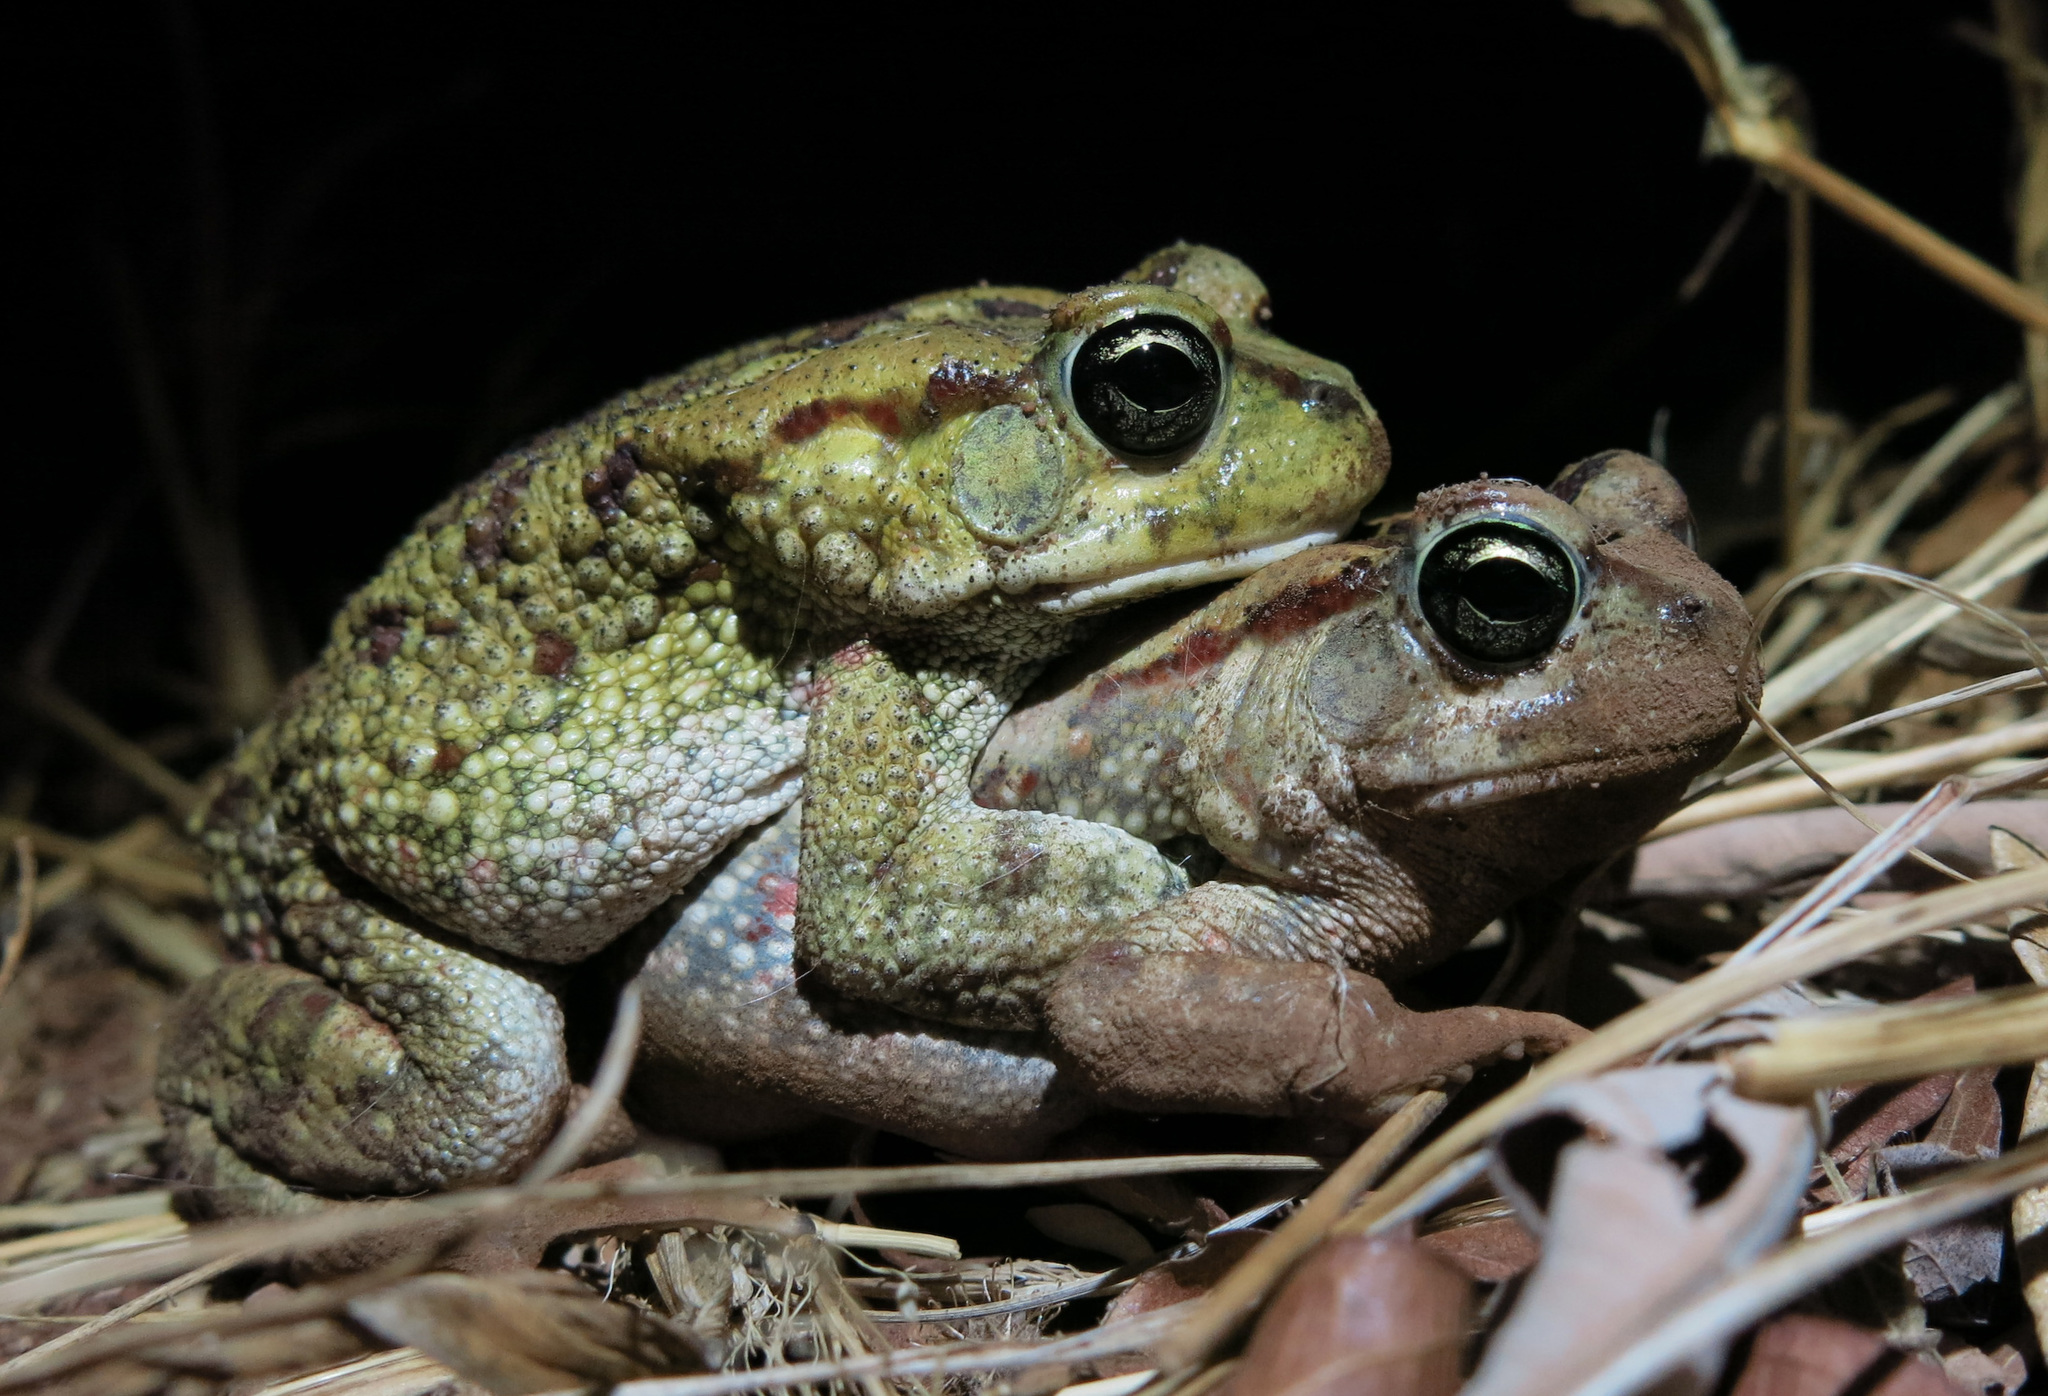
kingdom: Animalia
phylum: Chordata
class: Amphibia
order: Anura
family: Bufonidae
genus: Sclerophrys
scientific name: Sclerophrys garmani
